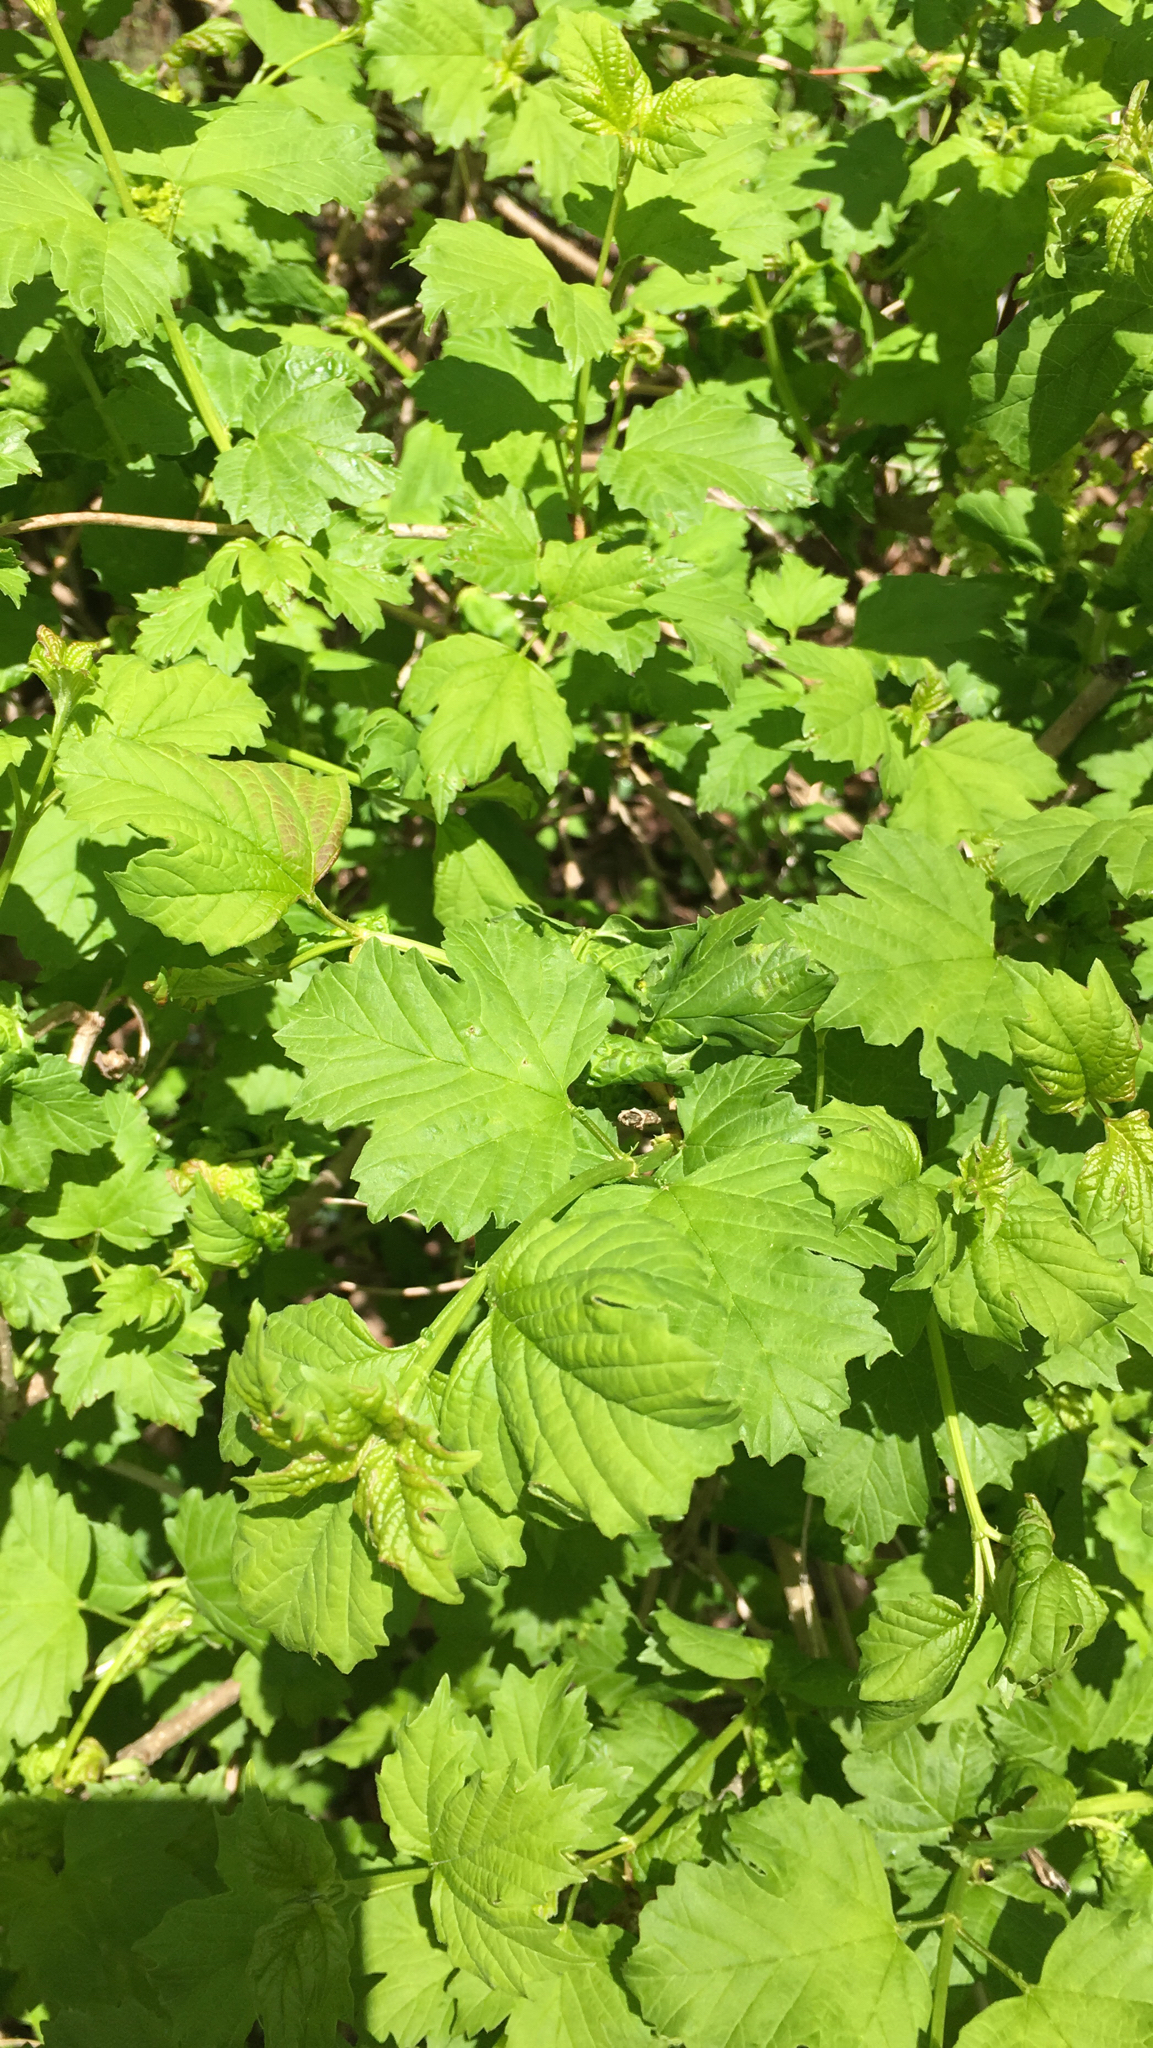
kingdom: Plantae
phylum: Tracheophyta
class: Magnoliopsida
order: Dipsacales
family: Viburnaceae
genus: Viburnum
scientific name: Viburnum opulus
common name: Guelder-rose
